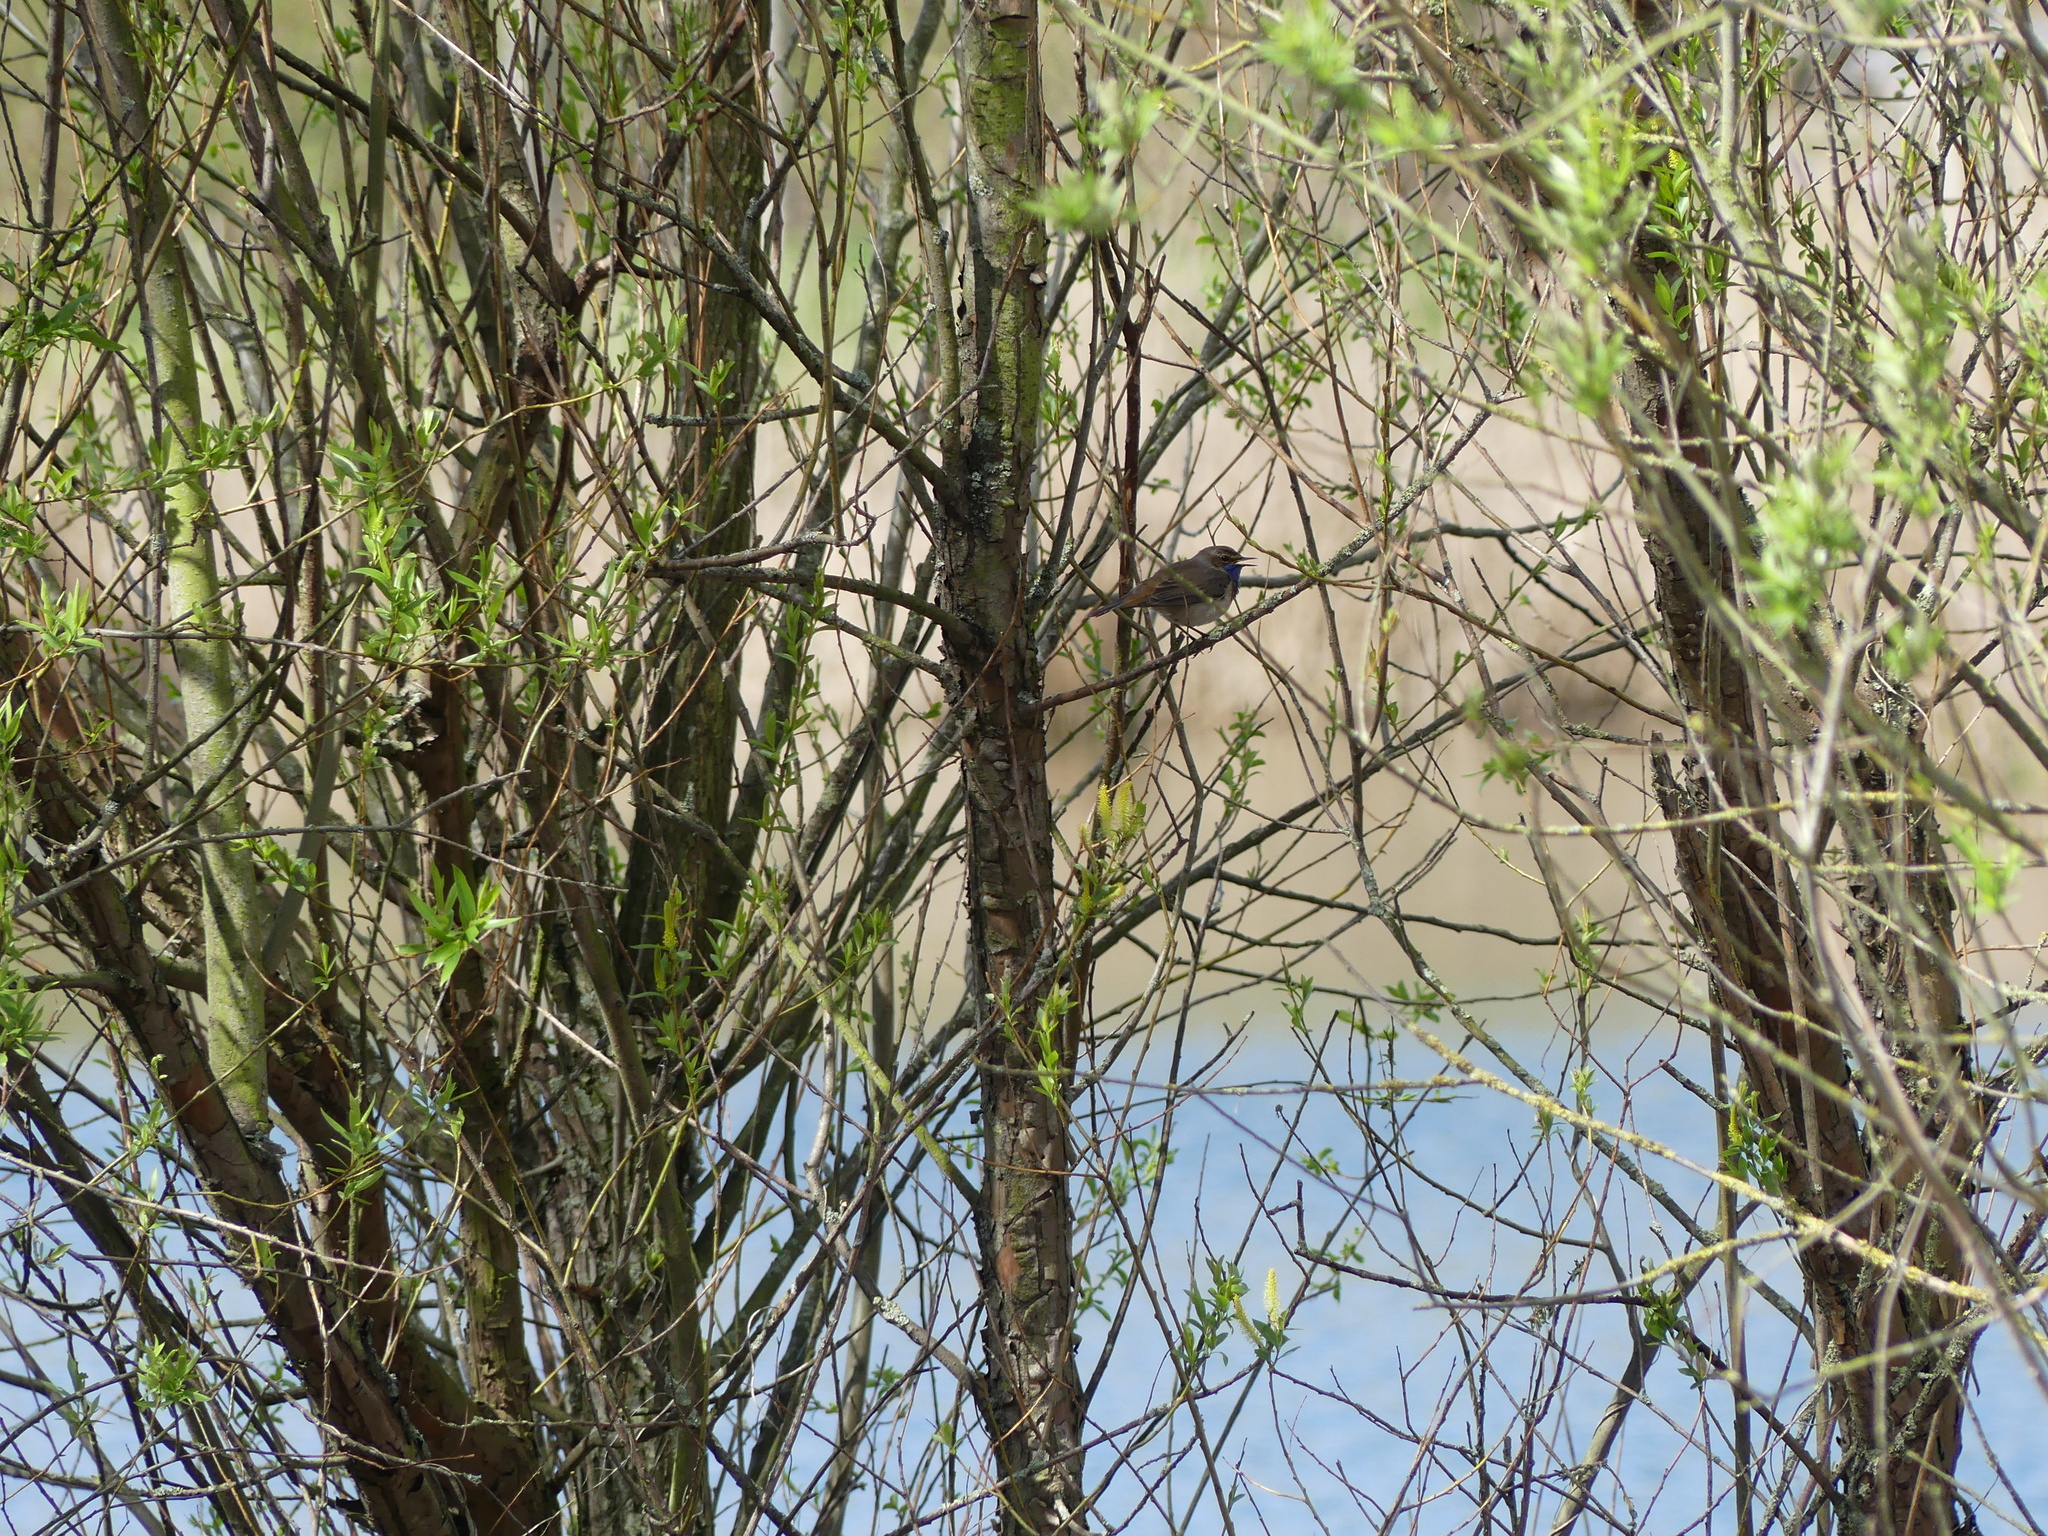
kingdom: Animalia
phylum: Chordata
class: Aves
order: Passeriformes
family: Muscicapidae
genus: Luscinia
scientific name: Luscinia svecica
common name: Bluethroat
